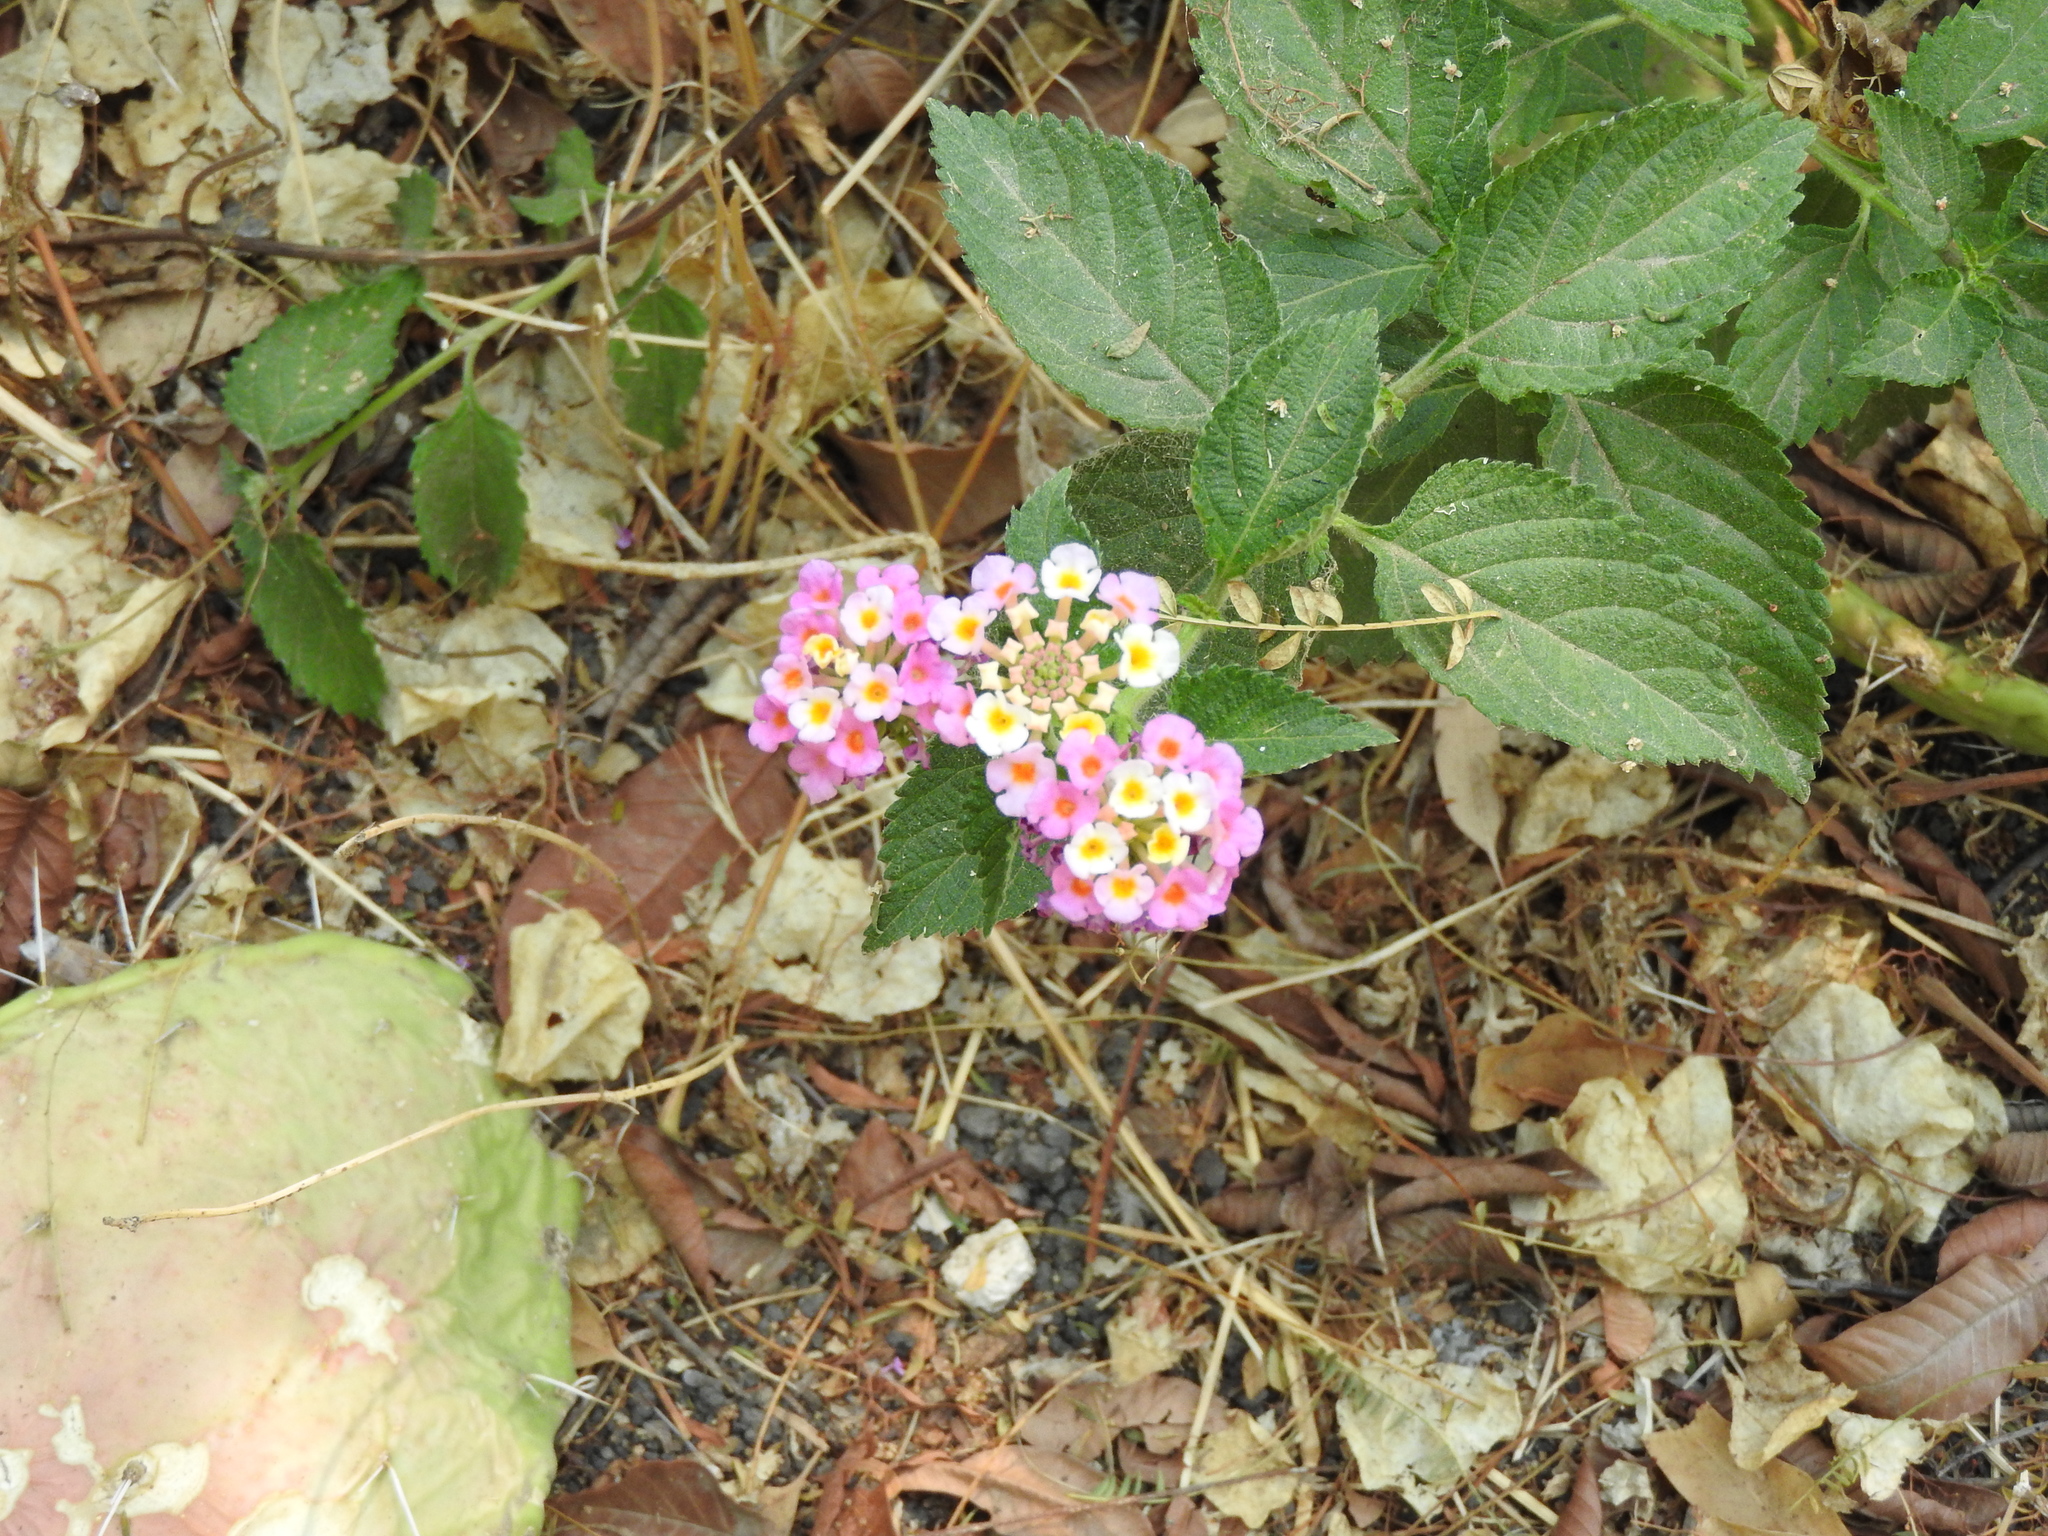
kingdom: Plantae
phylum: Tracheophyta
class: Magnoliopsida
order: Lamiales
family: Verbenaceae
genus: Lantana
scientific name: Lantana camara
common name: Lantana
